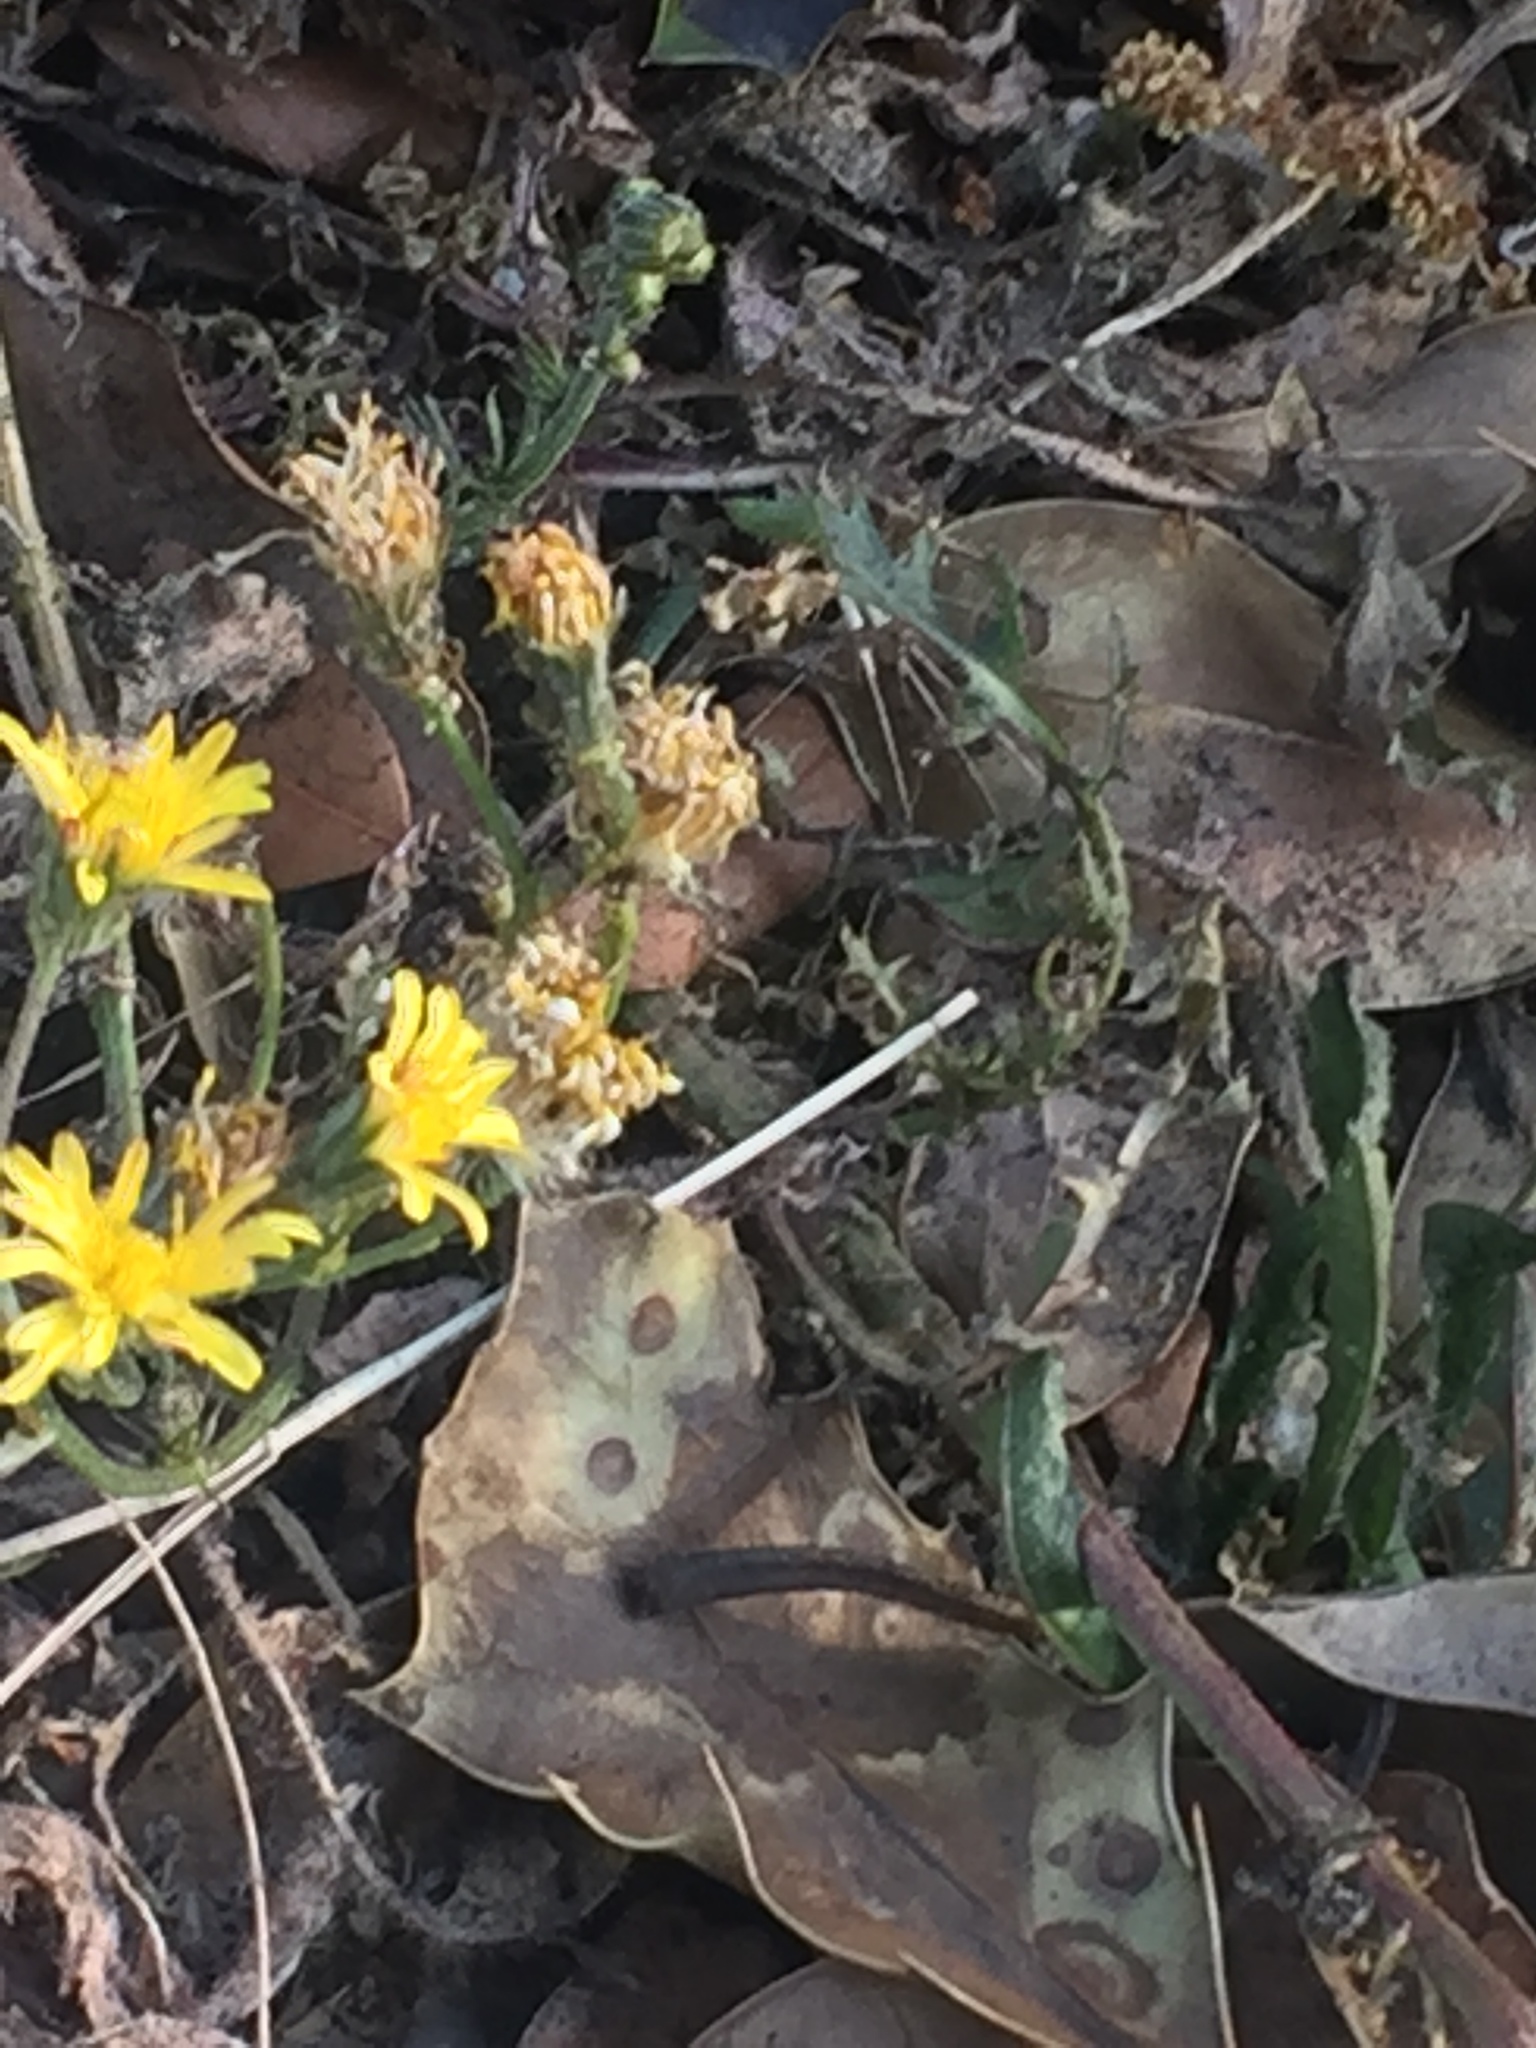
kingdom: Plantae
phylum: Tracheophyta
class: Magnoliopsida
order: Asterales
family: Asteraceae
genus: Crepis
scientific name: Crepis biennis
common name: Rough hawk's-beard
